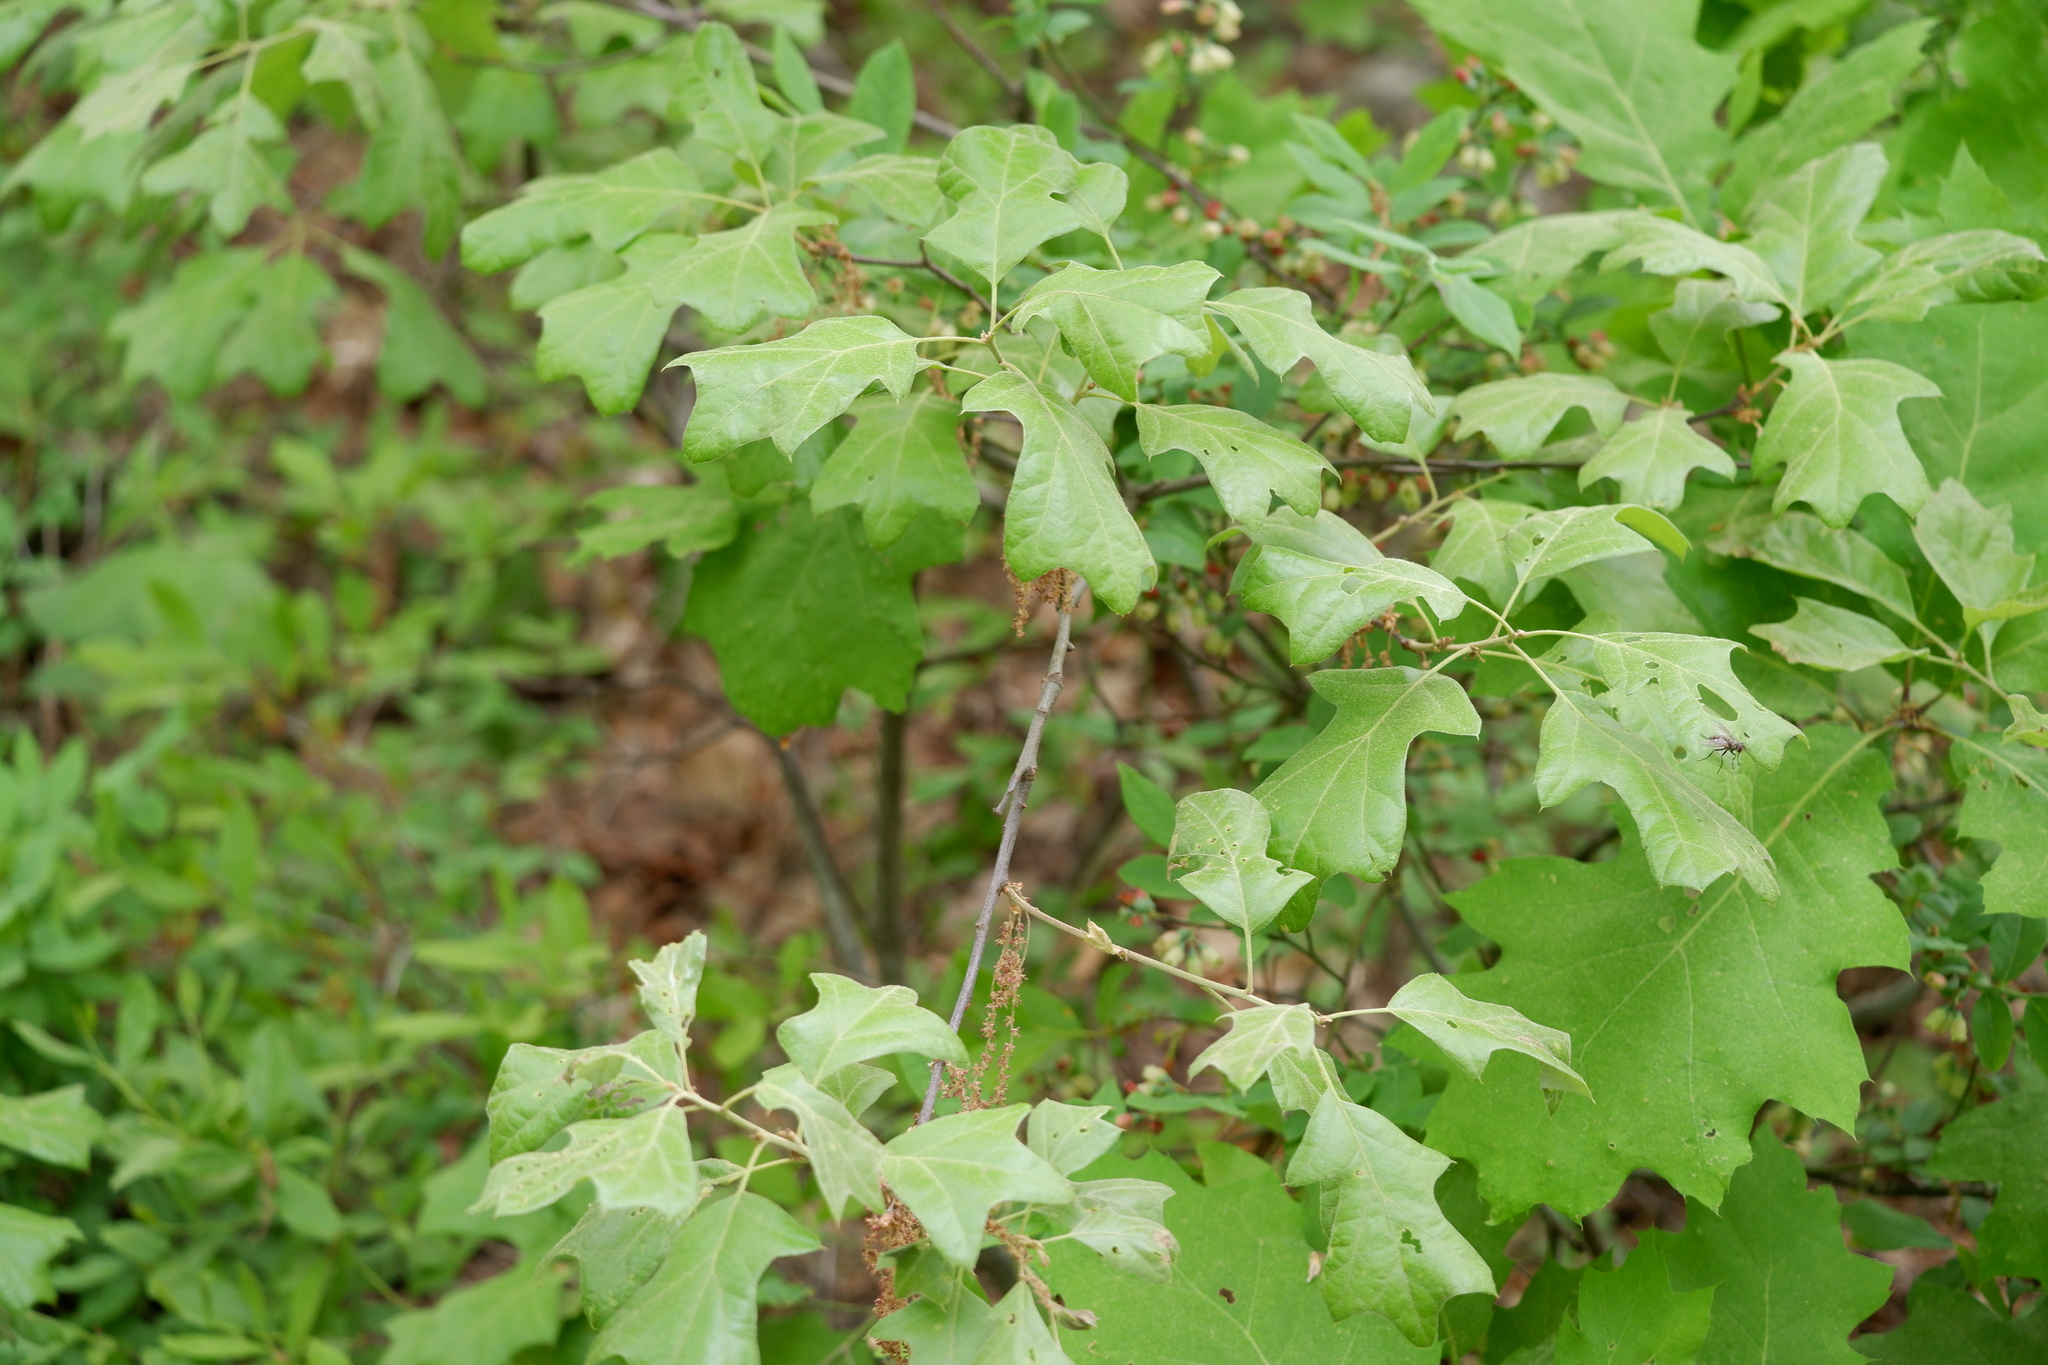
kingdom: Plantae
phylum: Tracheophyta
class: Magnoliopsida
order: Fagales
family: Fagaceae
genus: Quercus
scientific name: Quercus ilicifolia
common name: Bear oak
